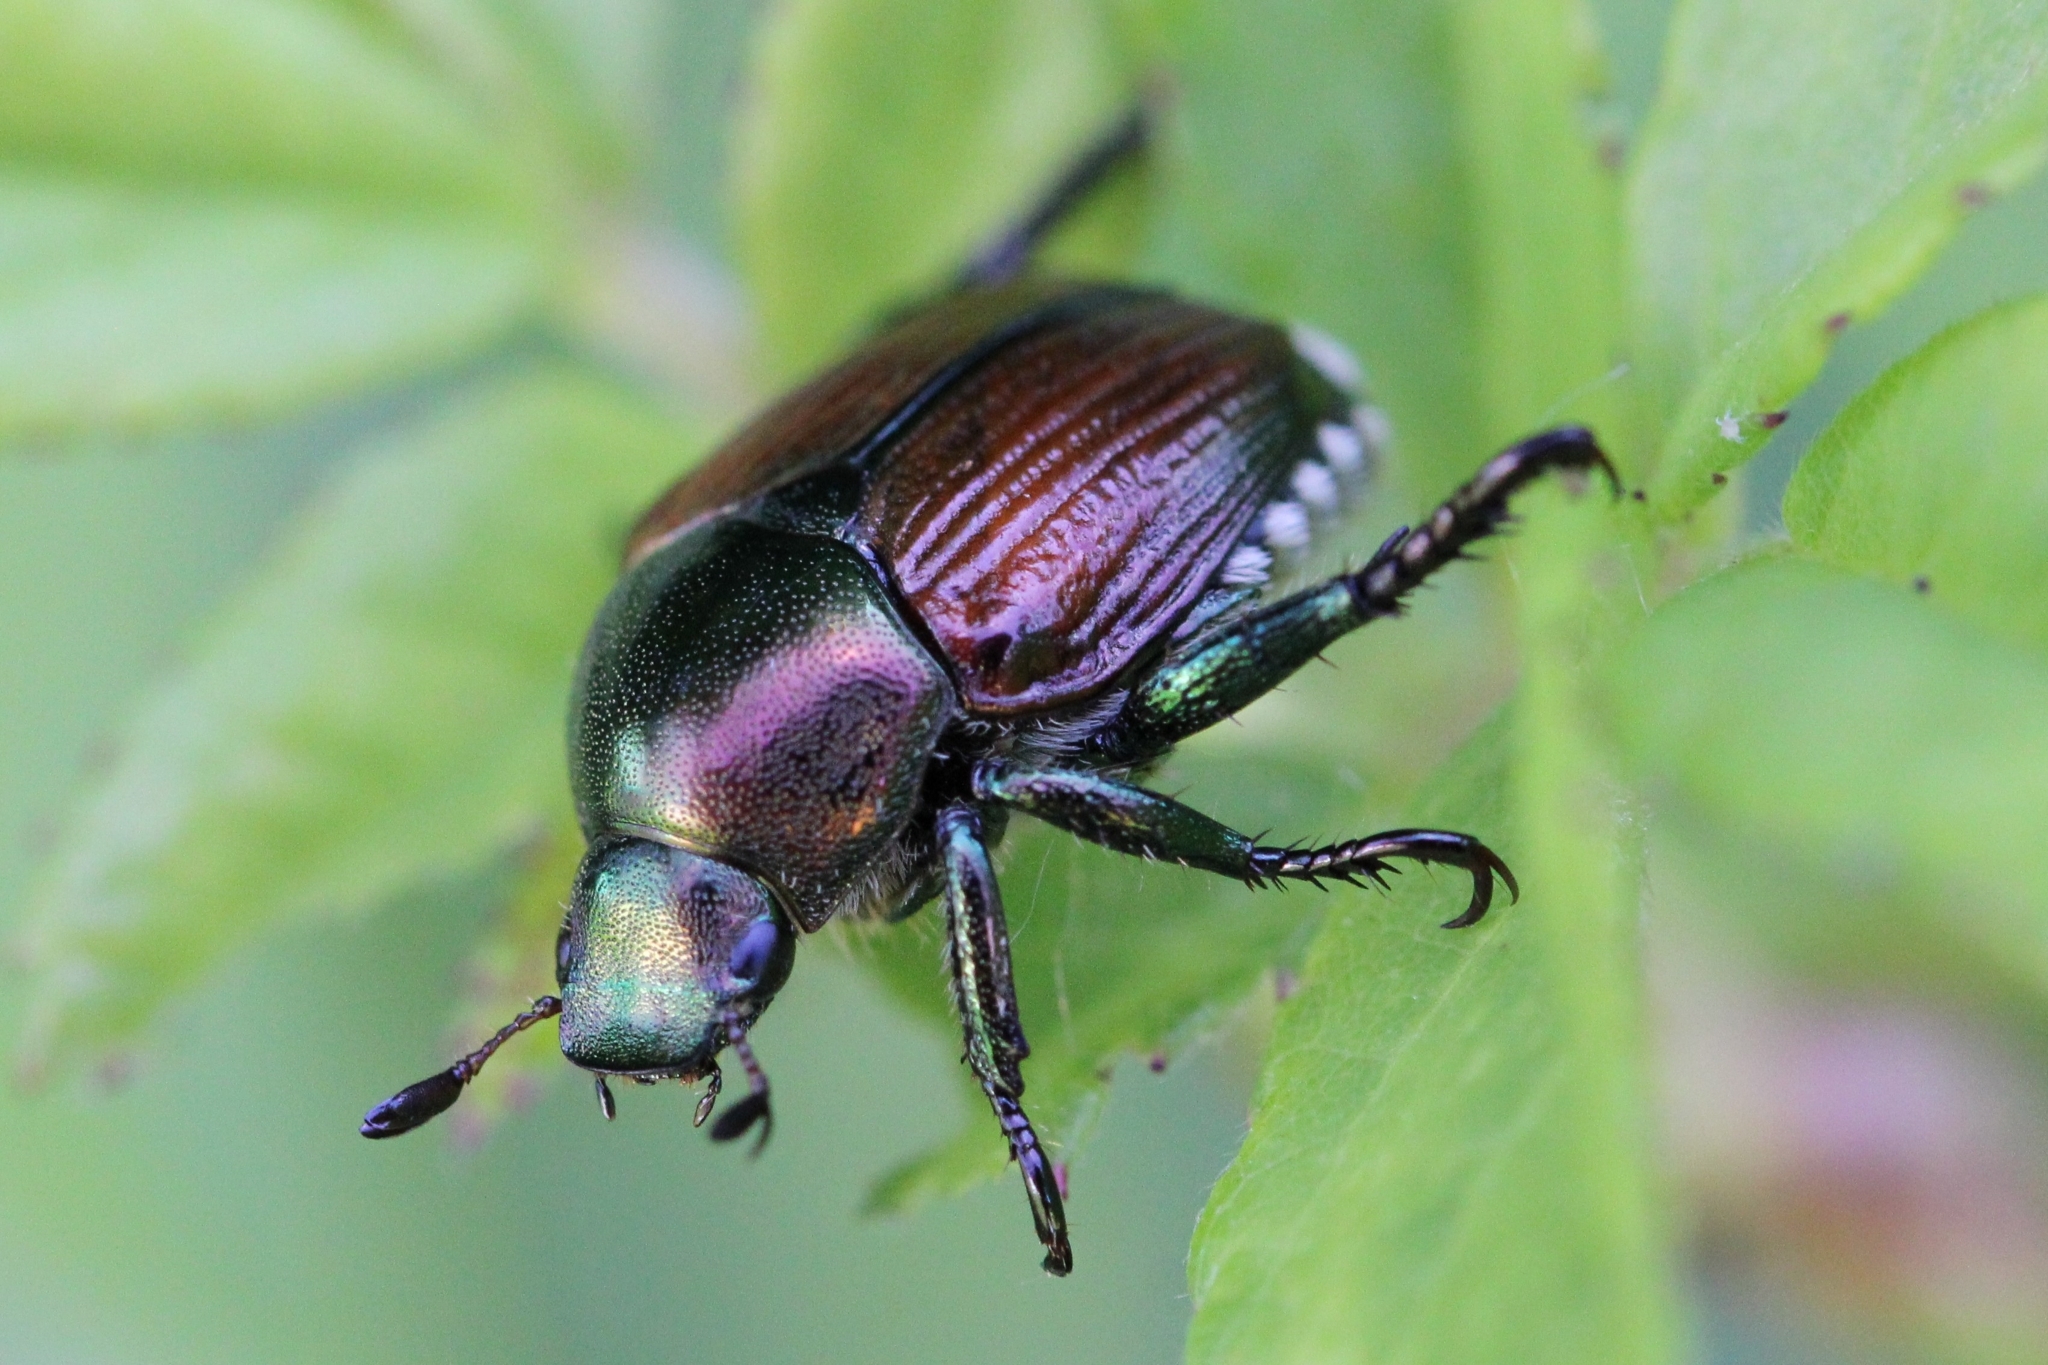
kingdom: Animalia
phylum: Arthropoda
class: Insecta
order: Coleoptera
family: Scarabaeidae
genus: Popillia
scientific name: Popillia japonica
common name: Japanese beetle
